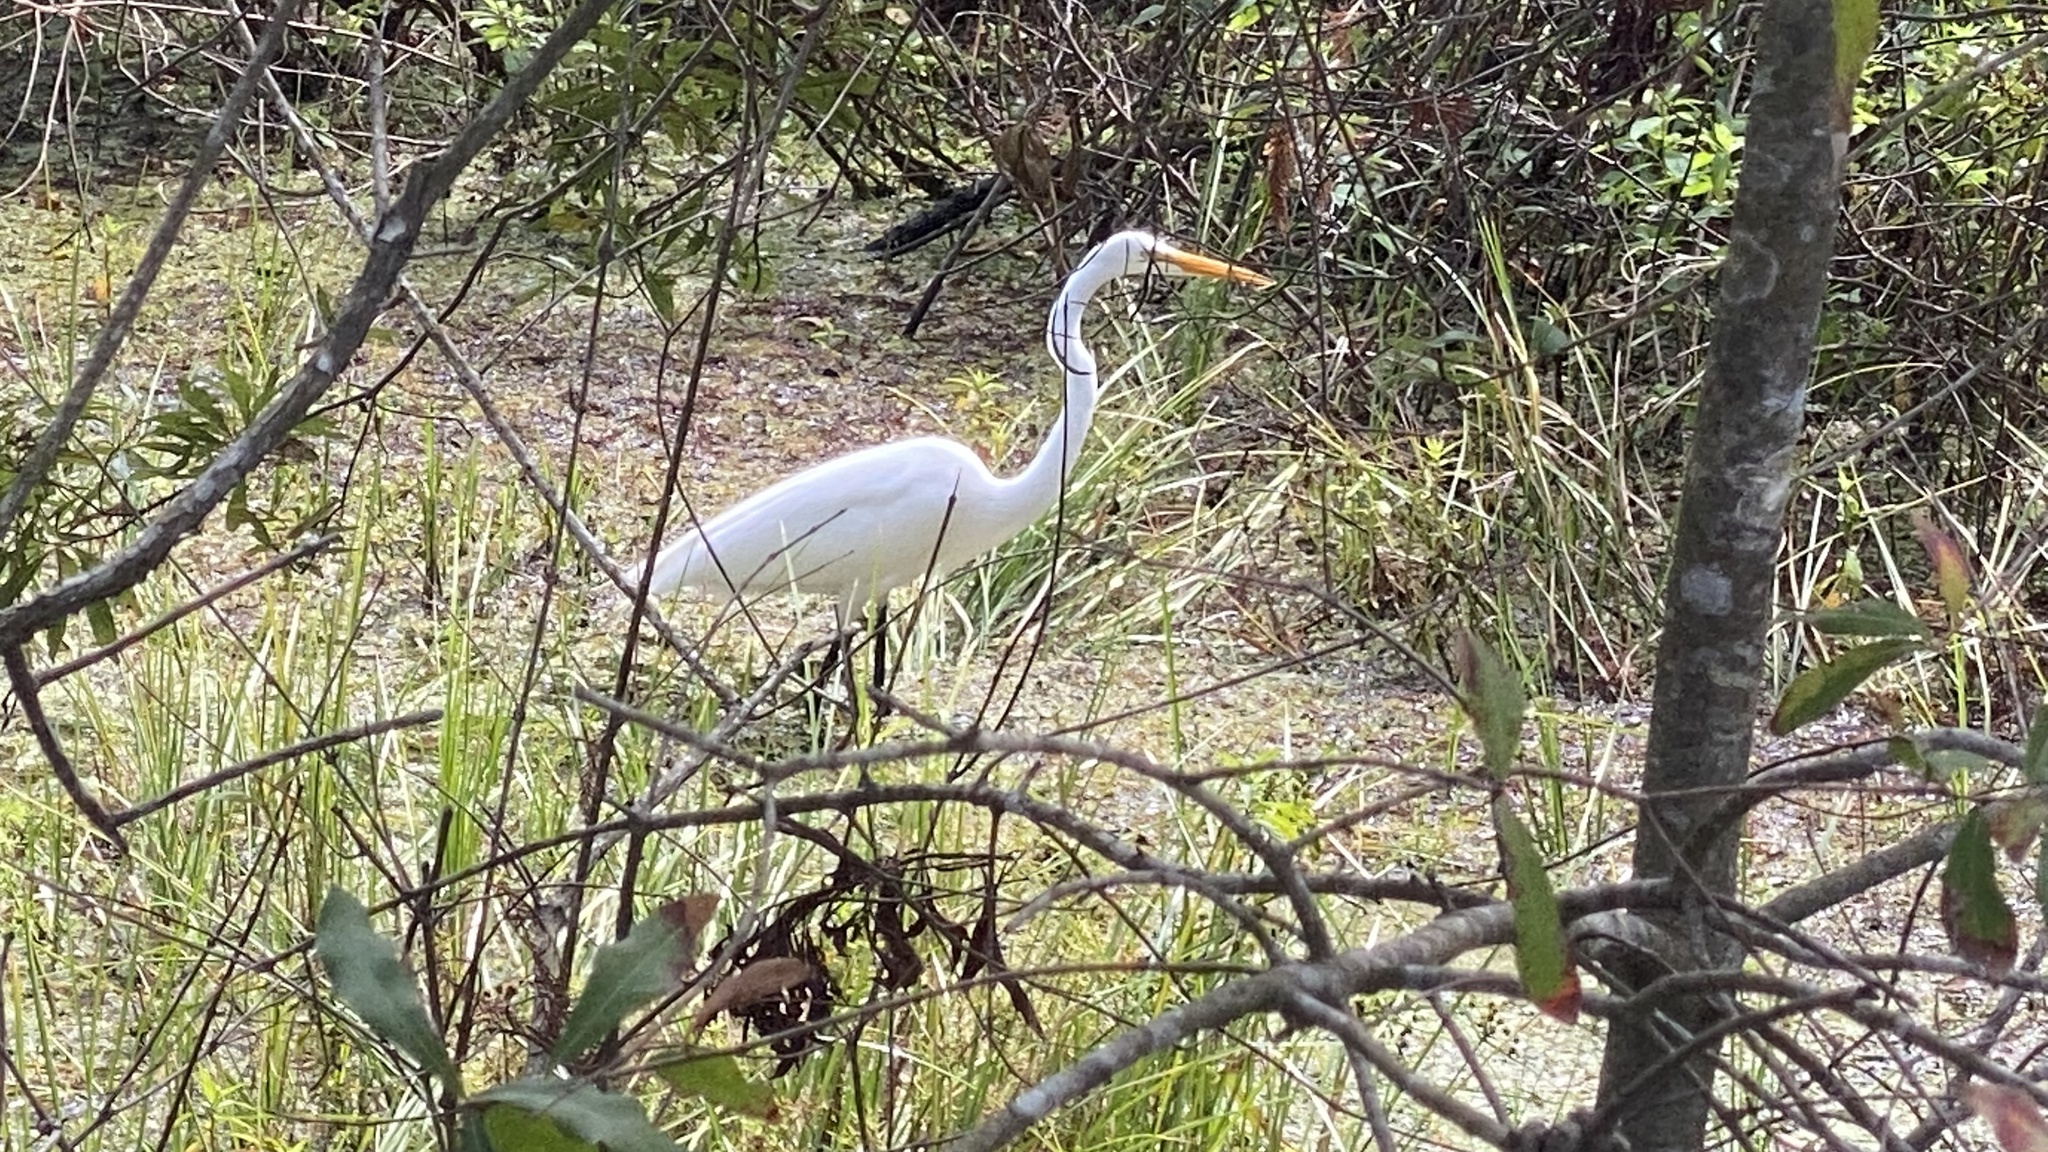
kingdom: Animalia
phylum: Chordata
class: Aves
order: Pelecaniformes
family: Ardeidae
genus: Ardea
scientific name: Ardea alba
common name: Great egret
